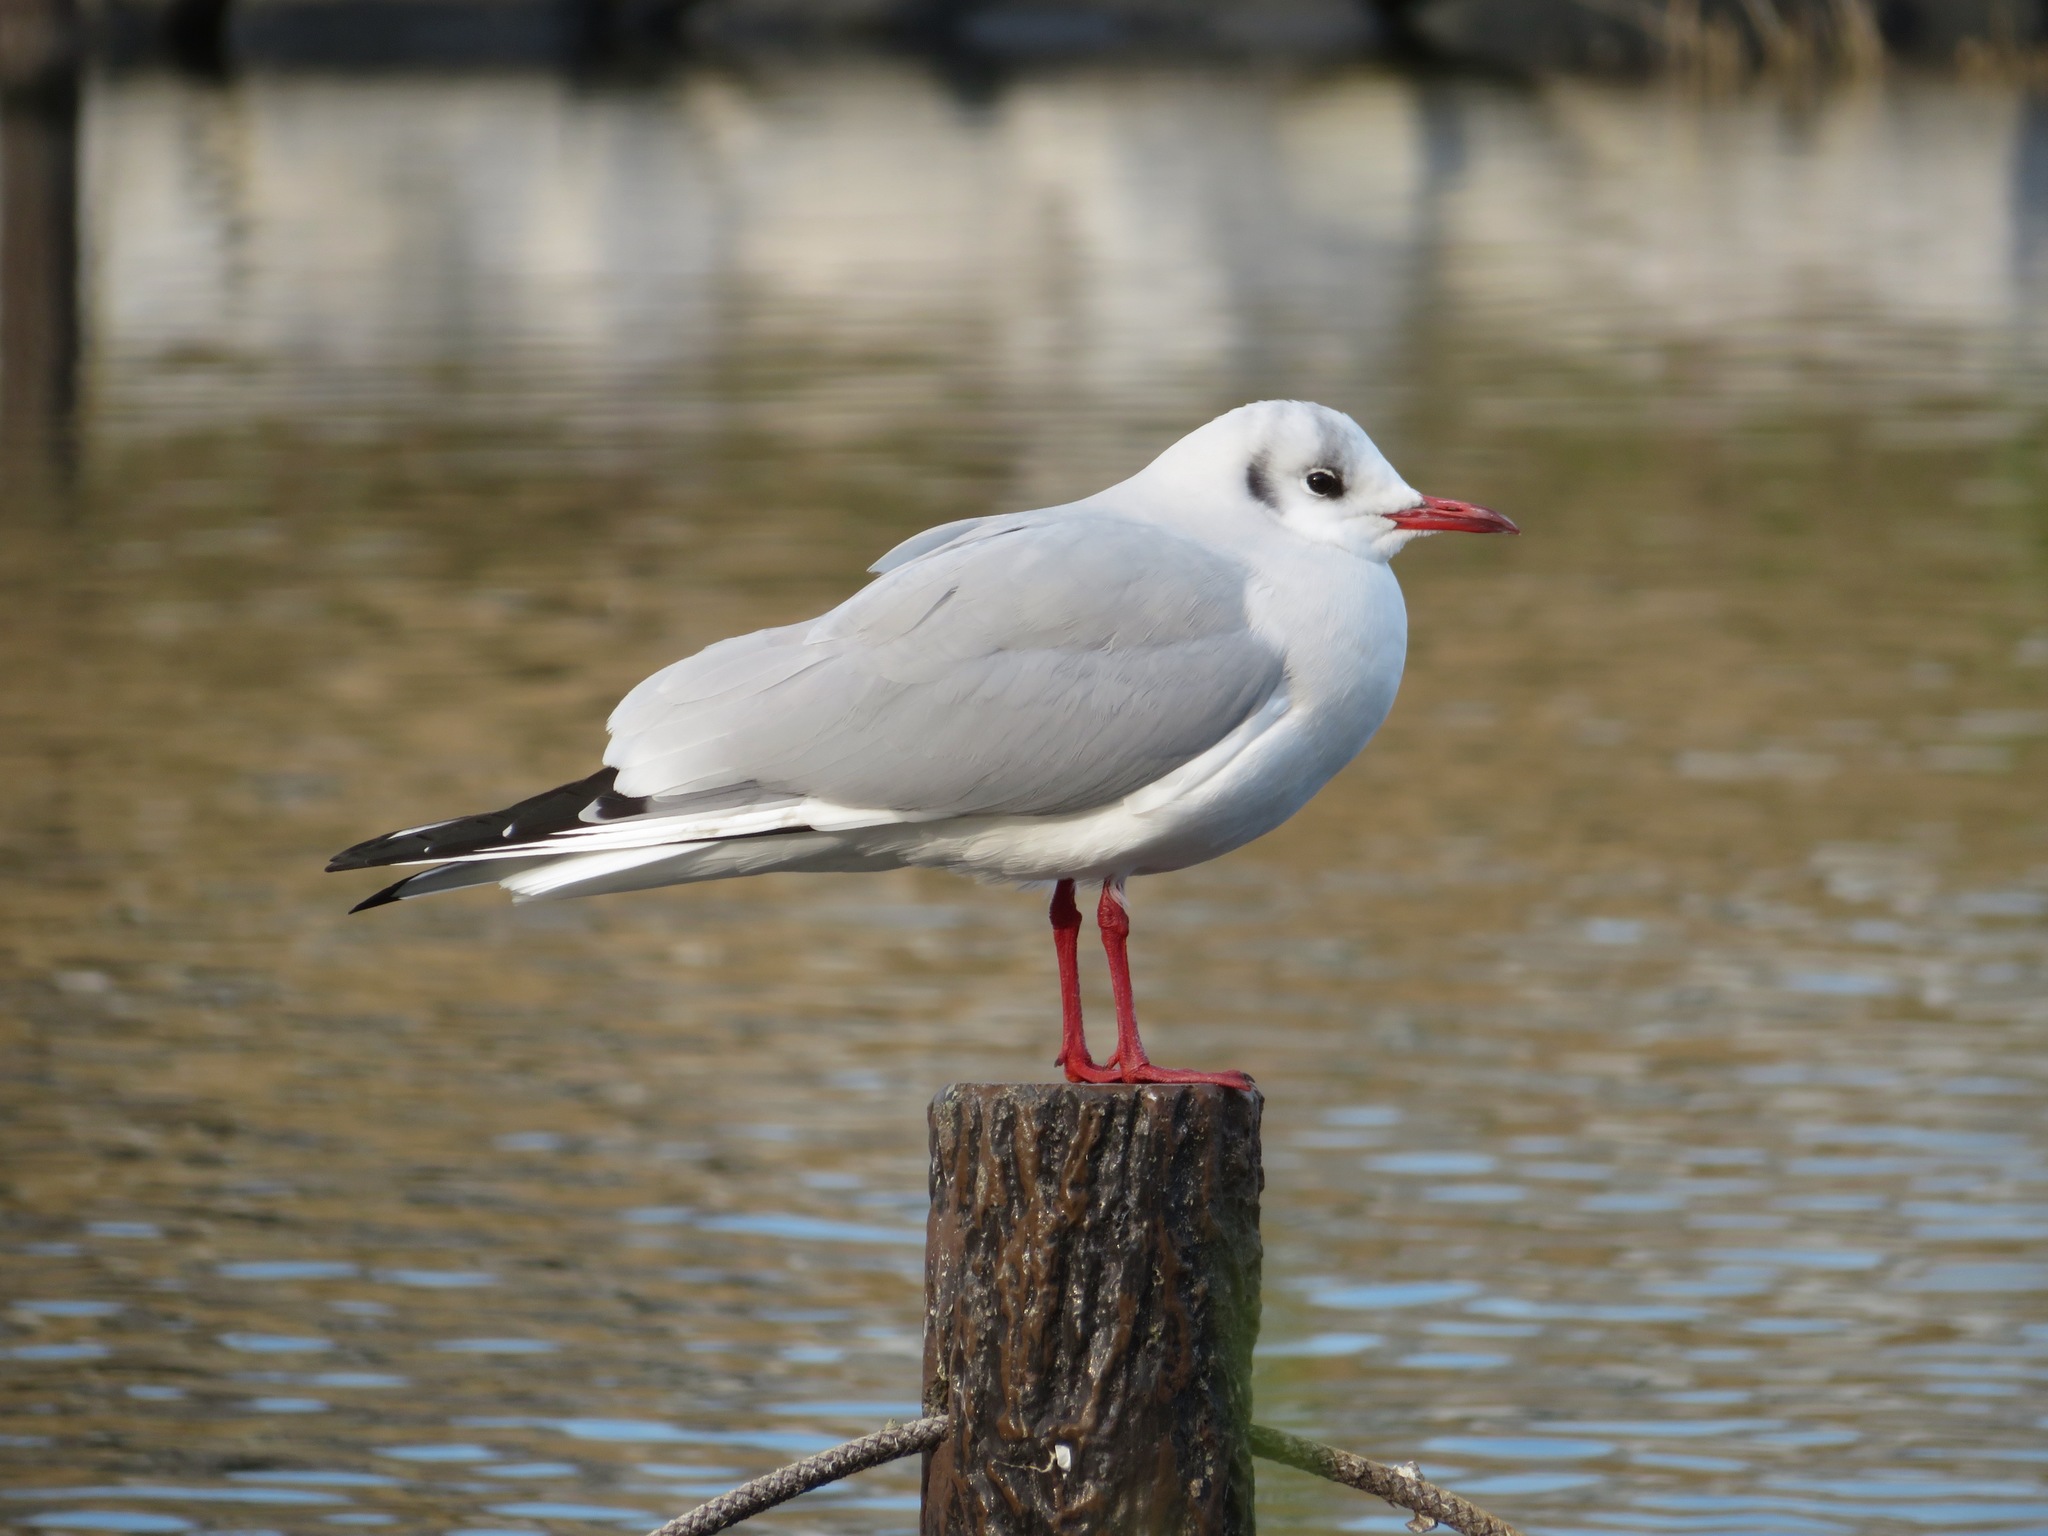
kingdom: Animalia
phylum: Chordata
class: Aves
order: Charadriiformes
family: Laridae
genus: Chroicocephalus
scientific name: Chroicocephalus ridibundus
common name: Black-headed gull
